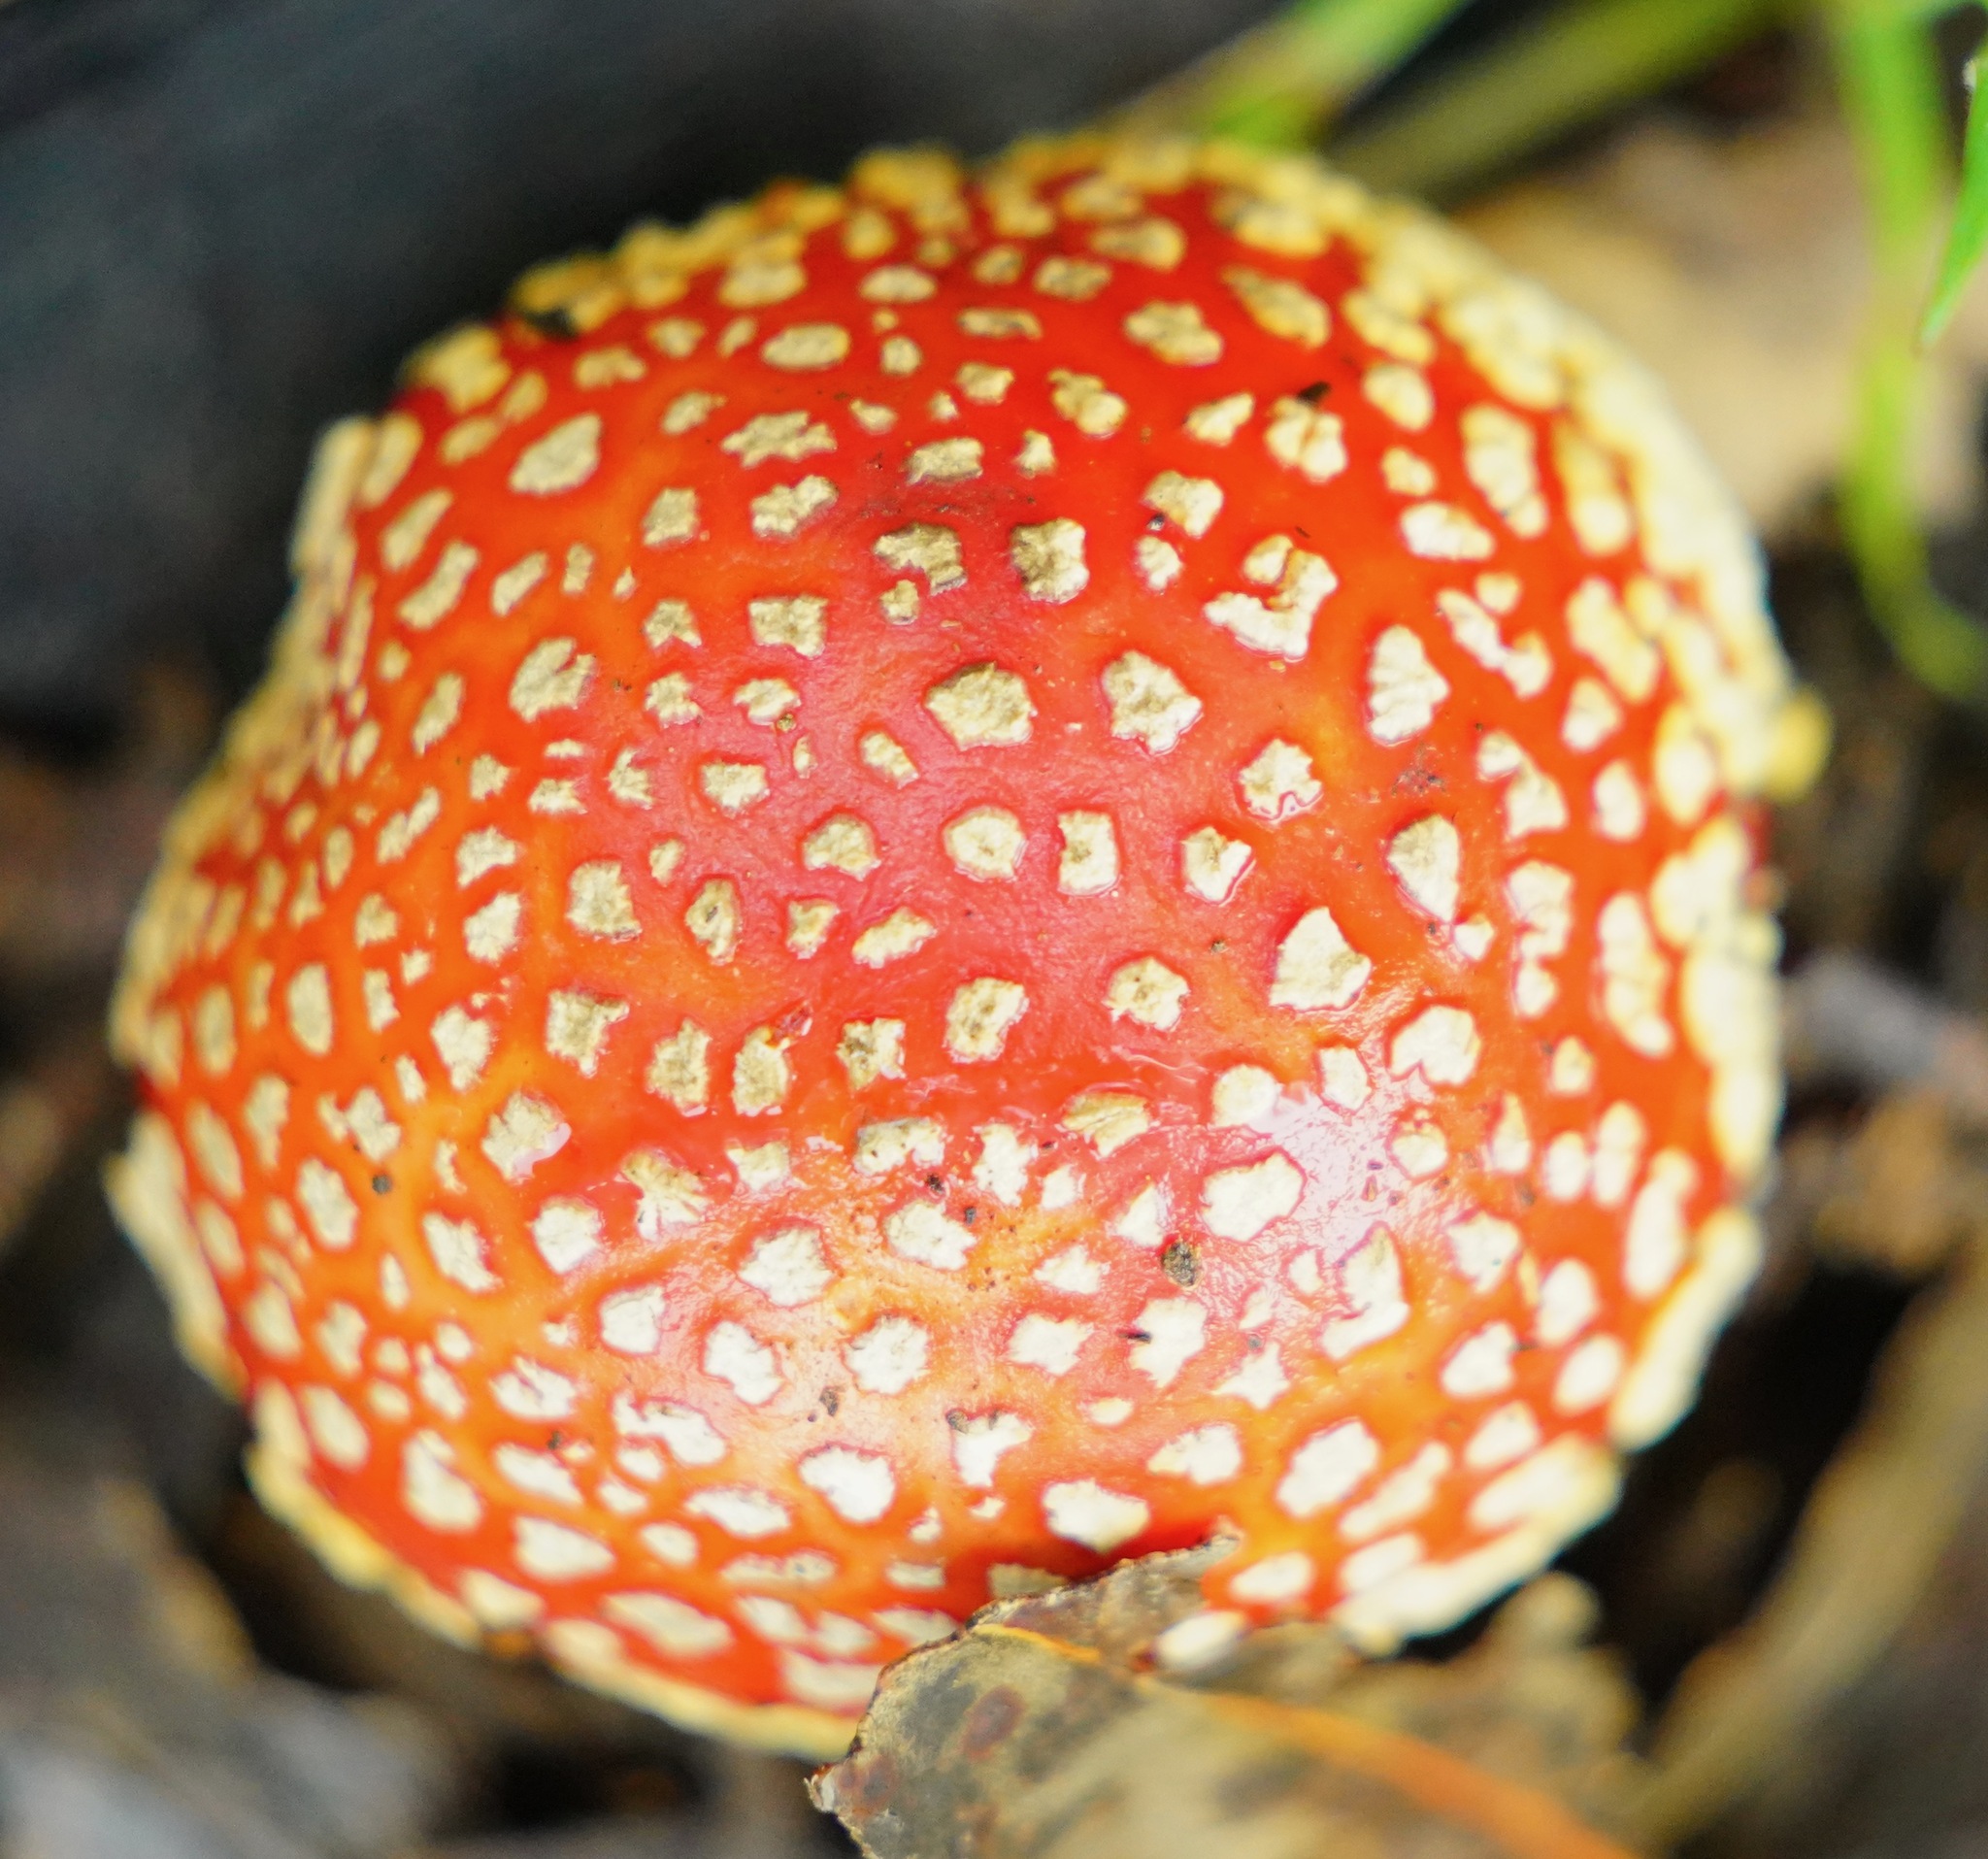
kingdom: Fungi
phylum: Basidiomycota
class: Agaricomycetes
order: Agaricales
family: Amanitaceae
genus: Amanita
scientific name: Amanita muscaria
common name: Fly agaric
